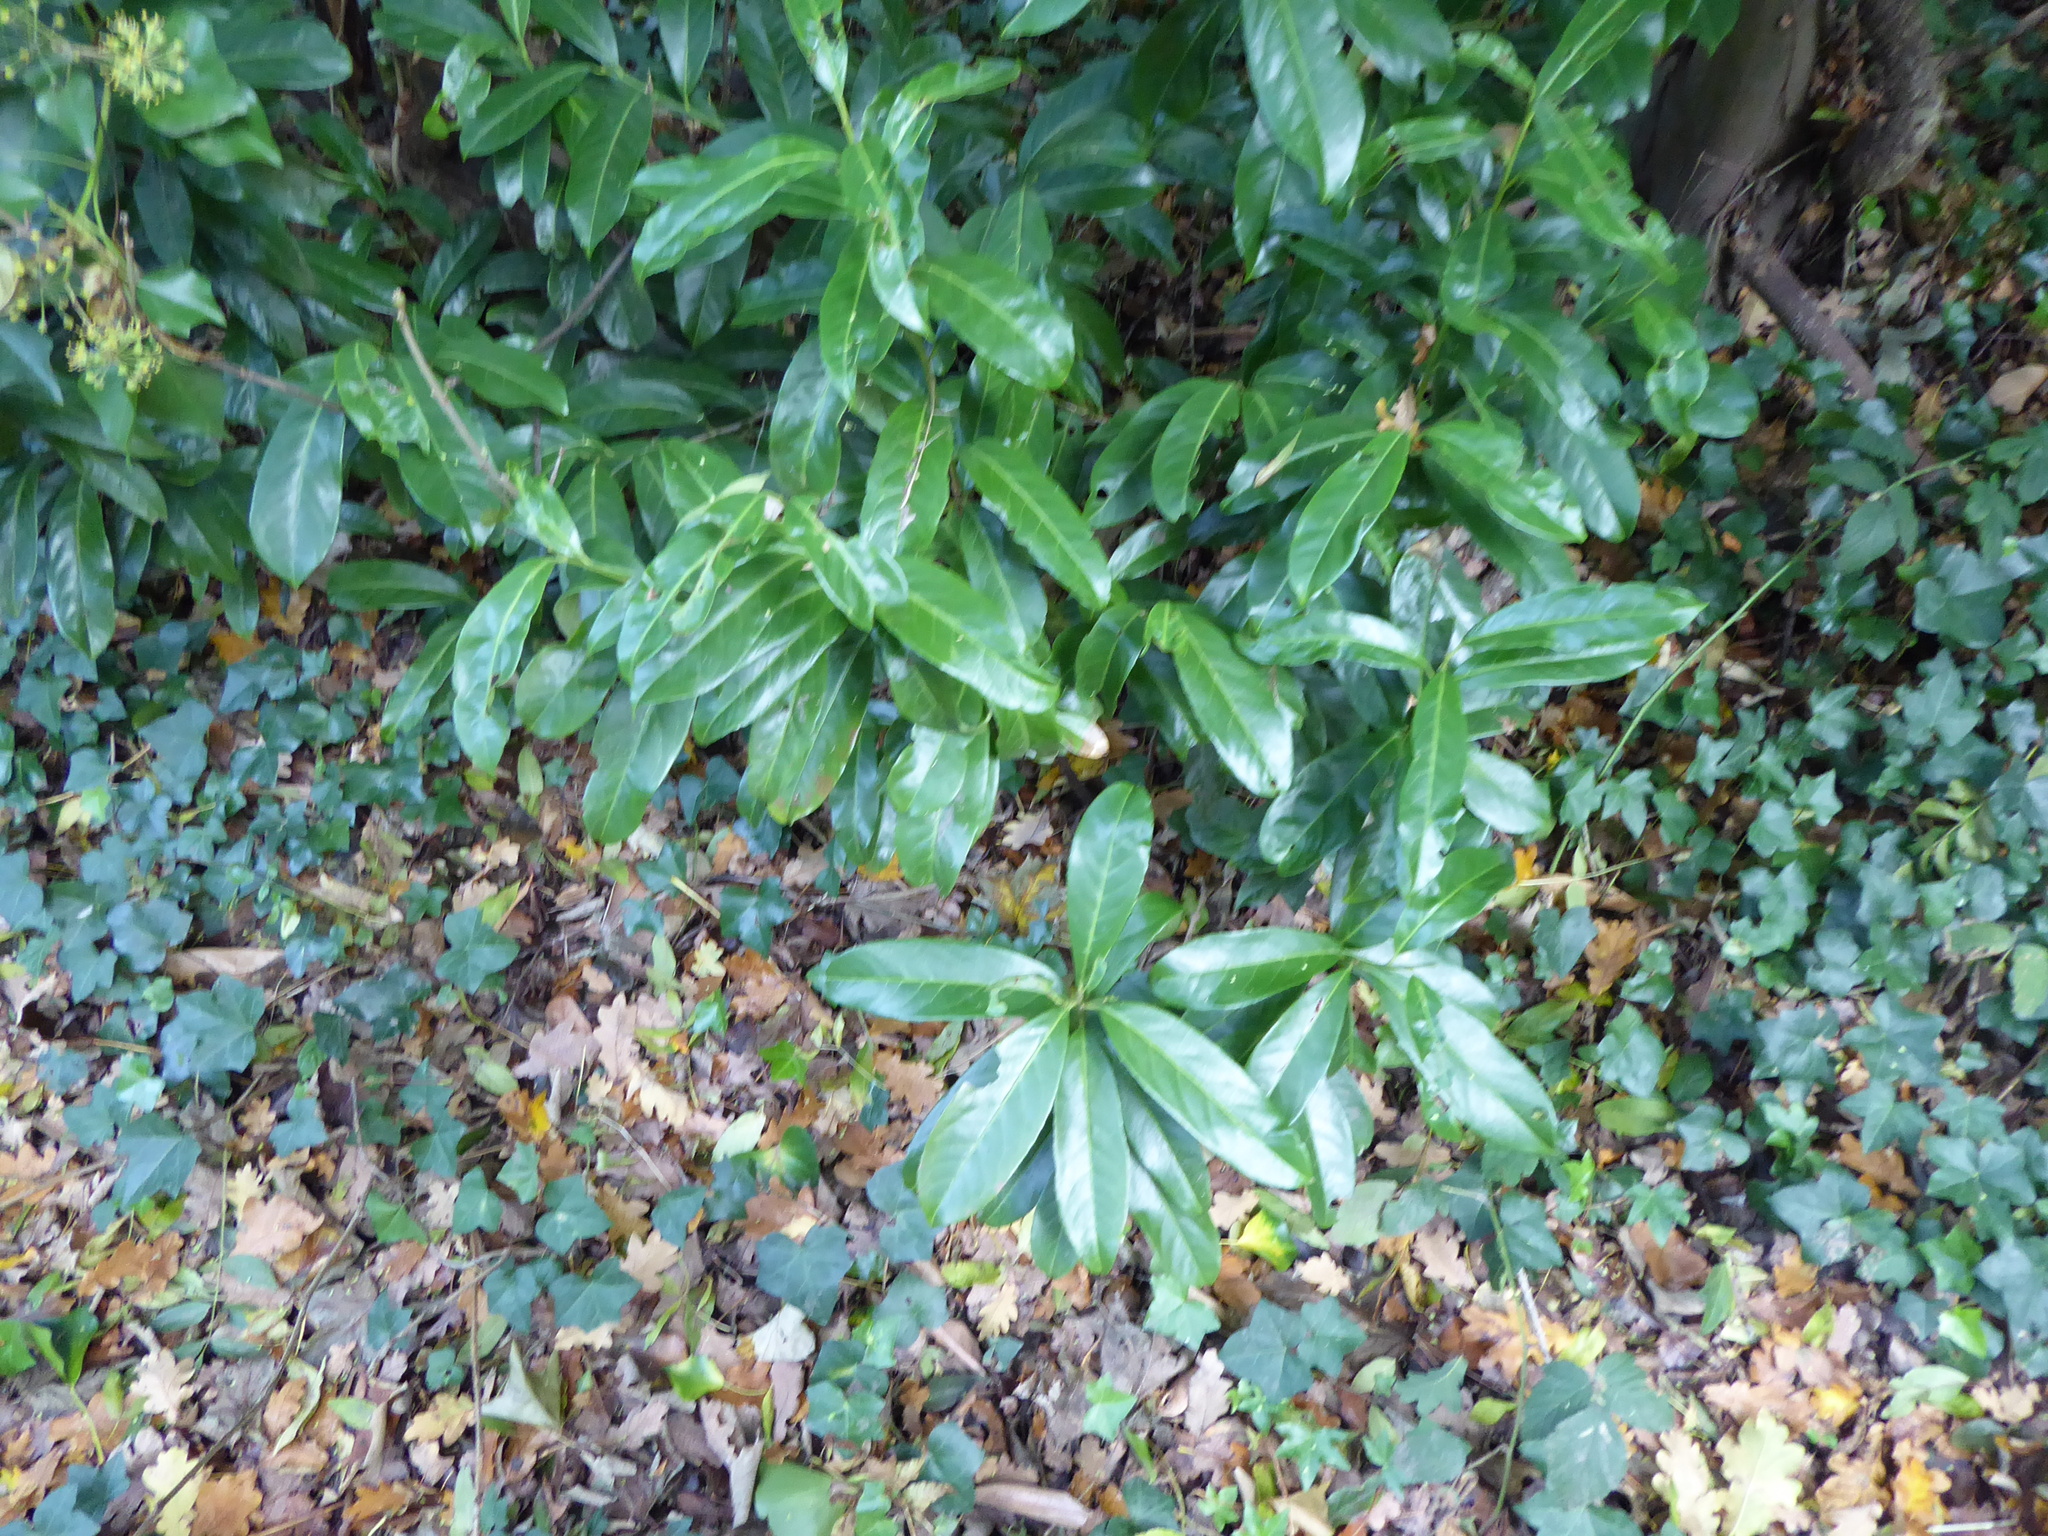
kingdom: Plantae
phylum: Tracheophyta
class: Magnoliopsida
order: Rosales
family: Rosaceae
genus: Prunus
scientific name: Prunus laurocerasus
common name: Cherry laurel
